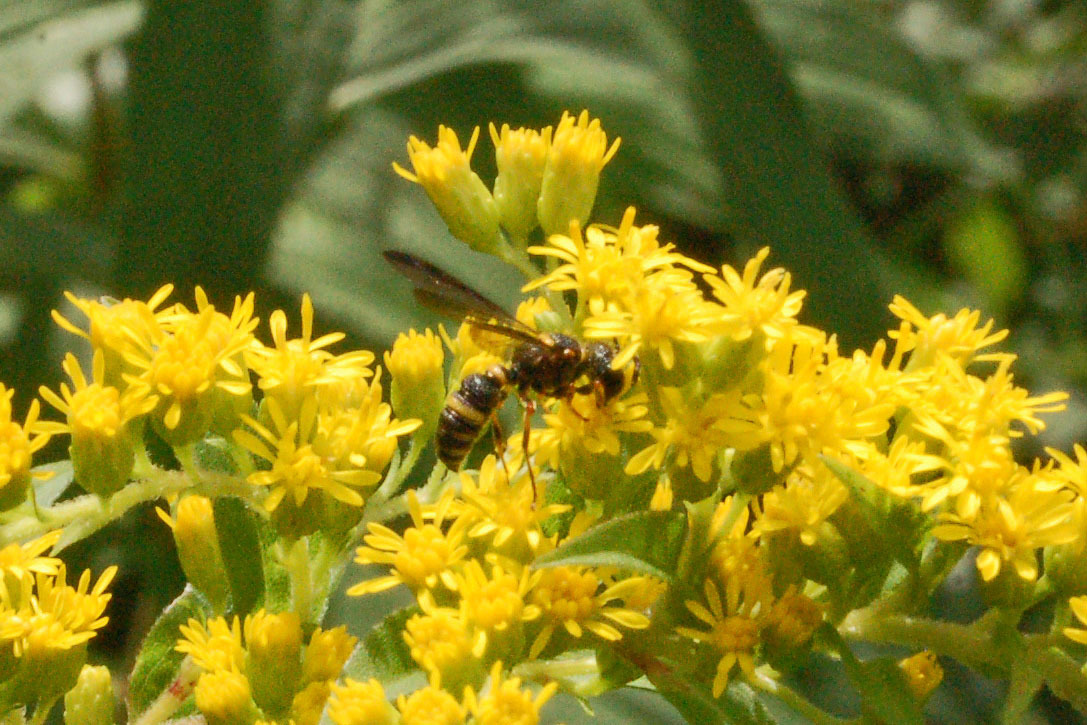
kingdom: Animalia
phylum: Arthropoda
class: Insecta
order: Hymenoptera
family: Crabronidae
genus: Cerceris
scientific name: Cerceris insolita
